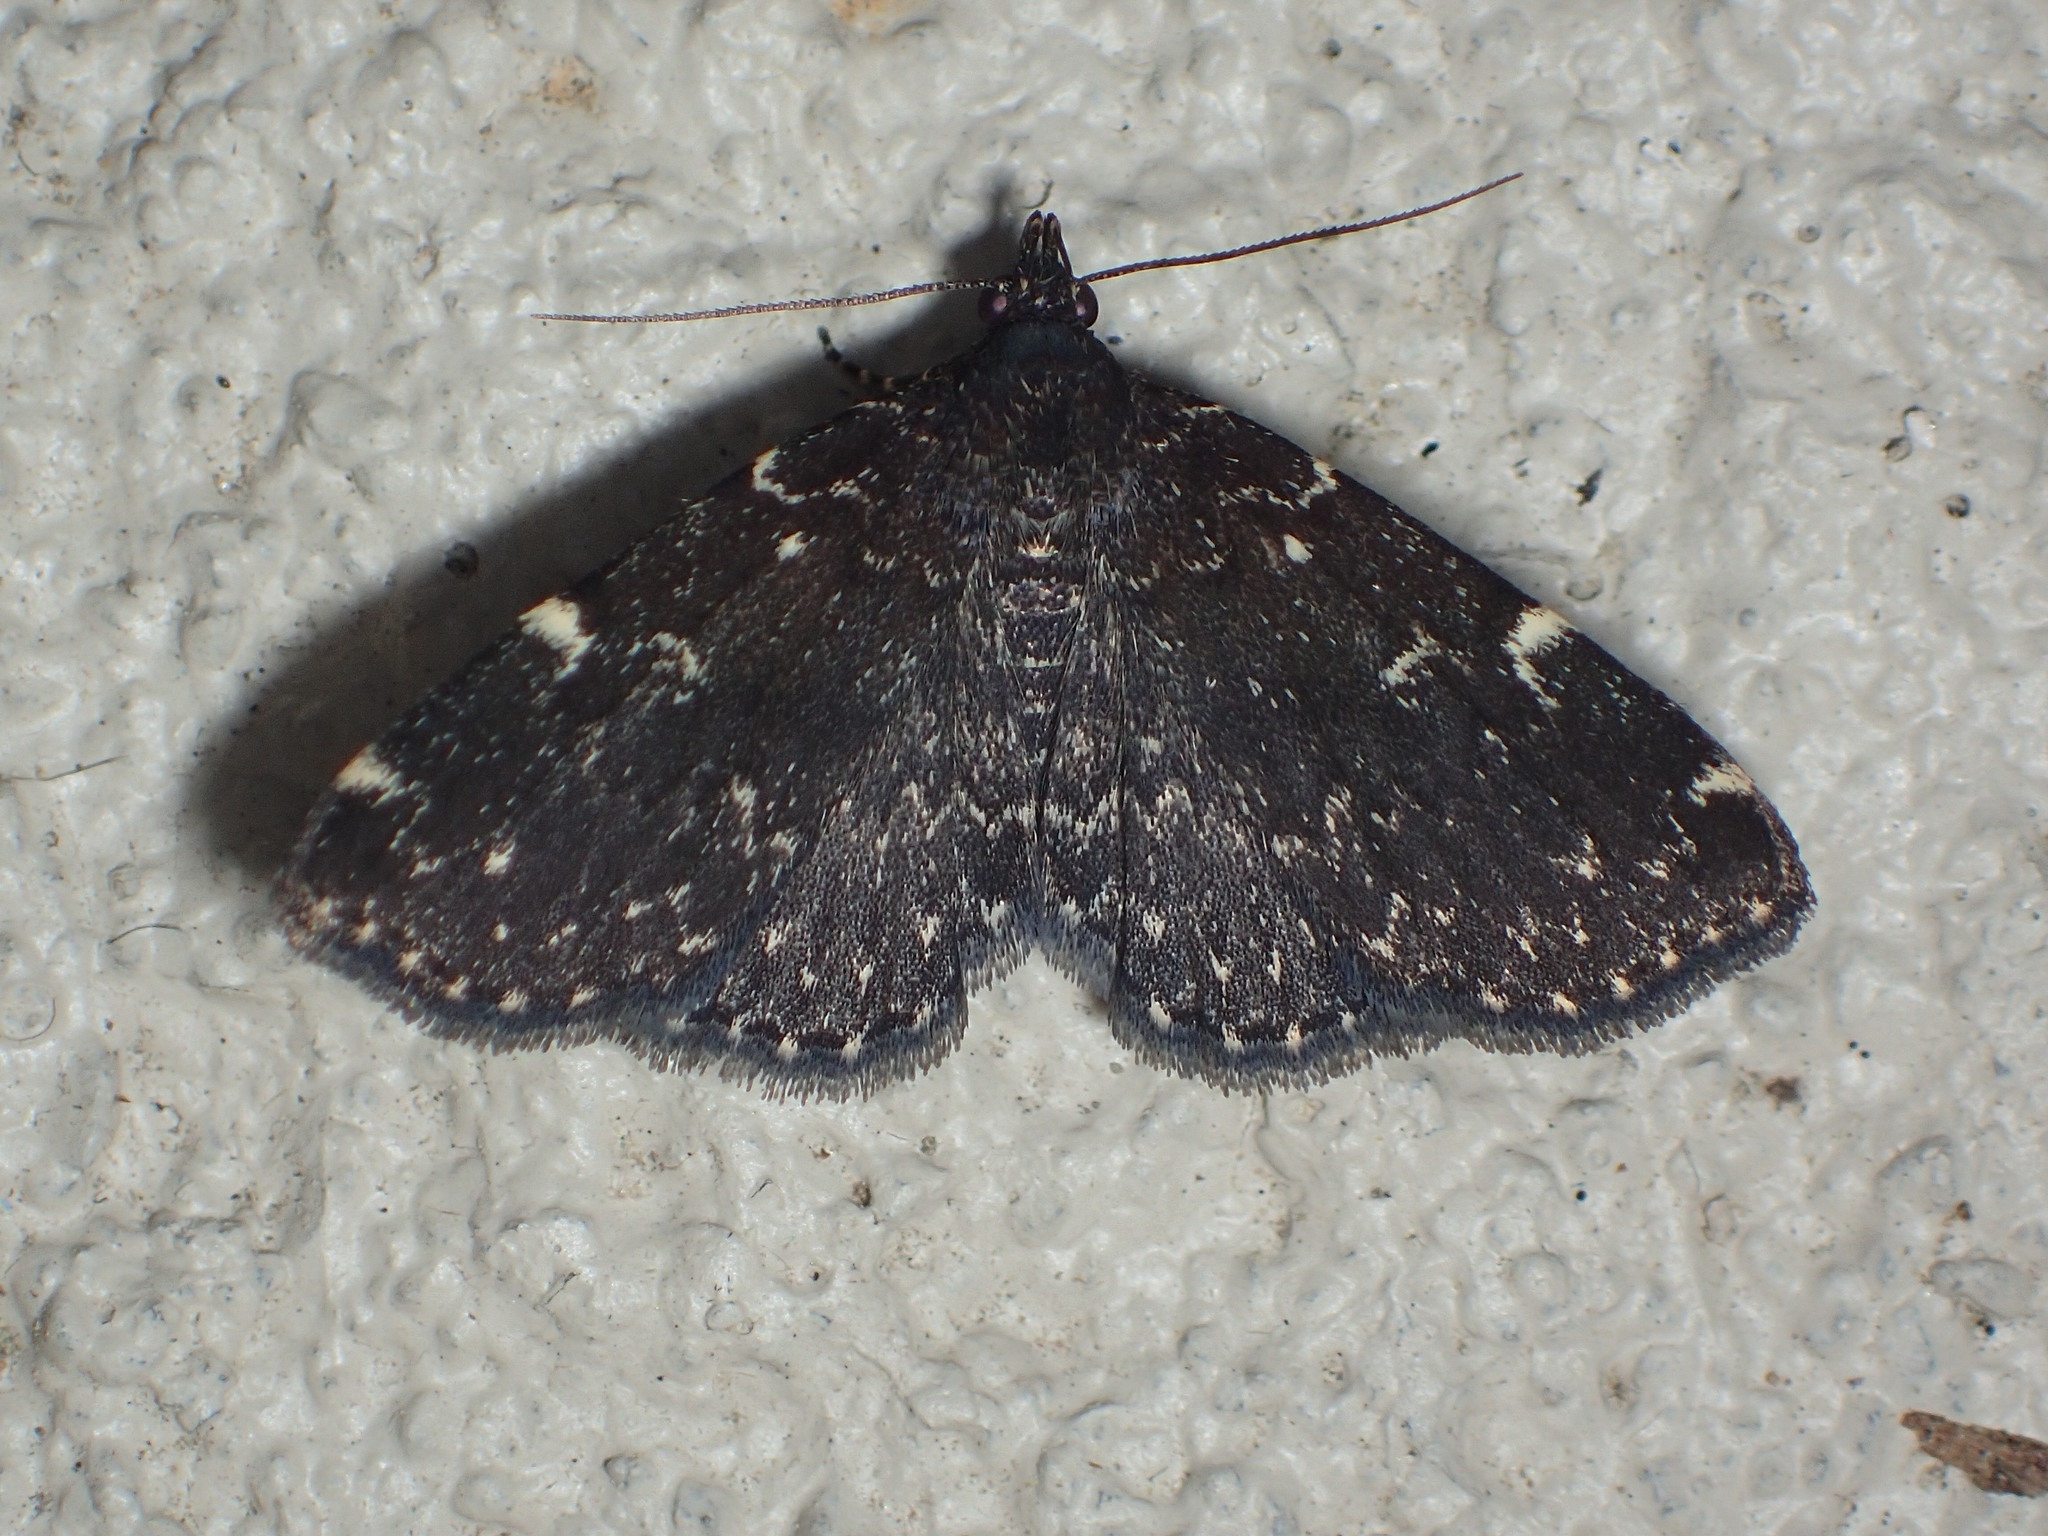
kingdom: Animalia
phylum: Arthropoda
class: Insecta
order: Lepidoptera
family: Erebidae
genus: Idia
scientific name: Idia scobialis
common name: Smoky idia moth
